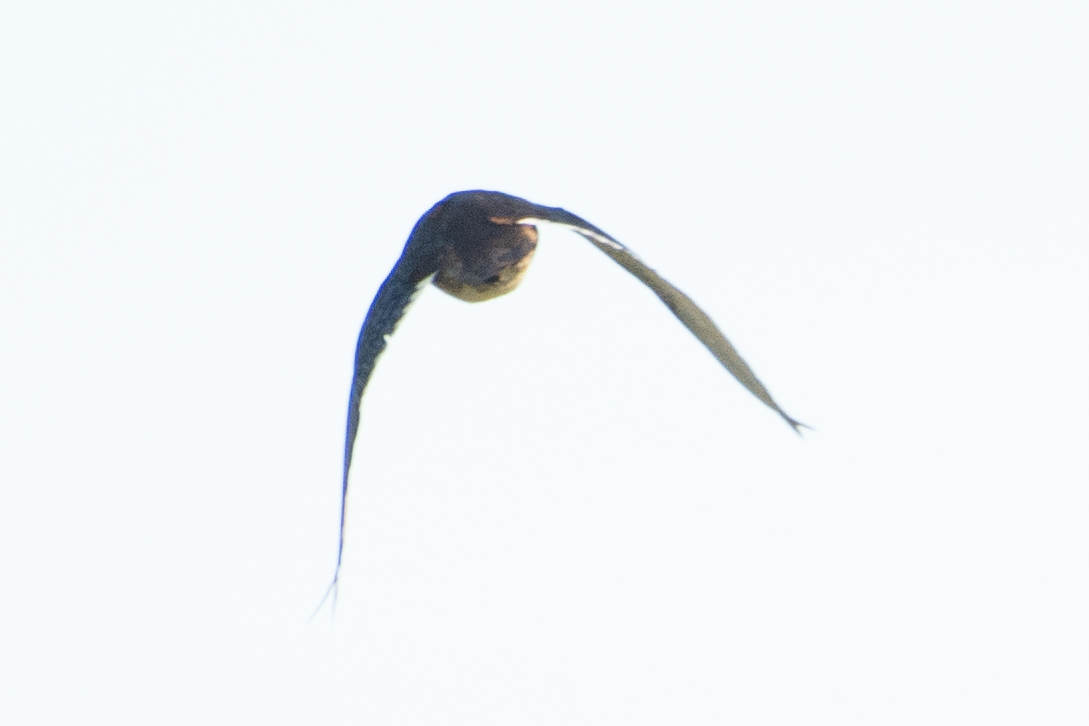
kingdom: Animalia
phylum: Chordata
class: Aves
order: Anseriformes
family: Anatidae
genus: Aix
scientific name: Aix sponsa
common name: Wood duck
